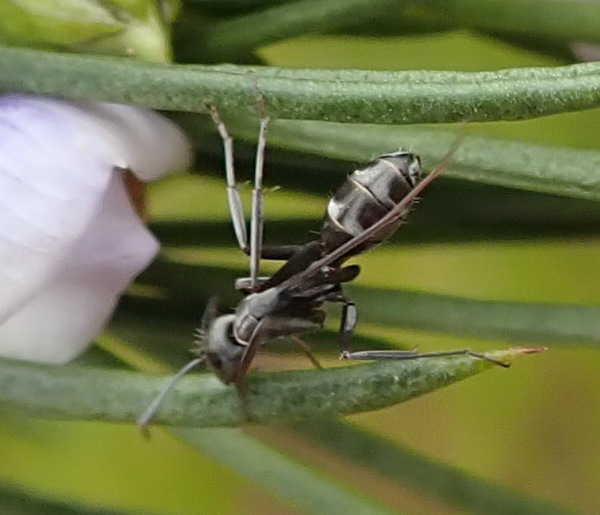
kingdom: Animalia
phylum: Arthropoda
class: Insecta
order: Hymenoptera
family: Formicidae
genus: Camponotus
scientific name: Camponotus cinctellus
